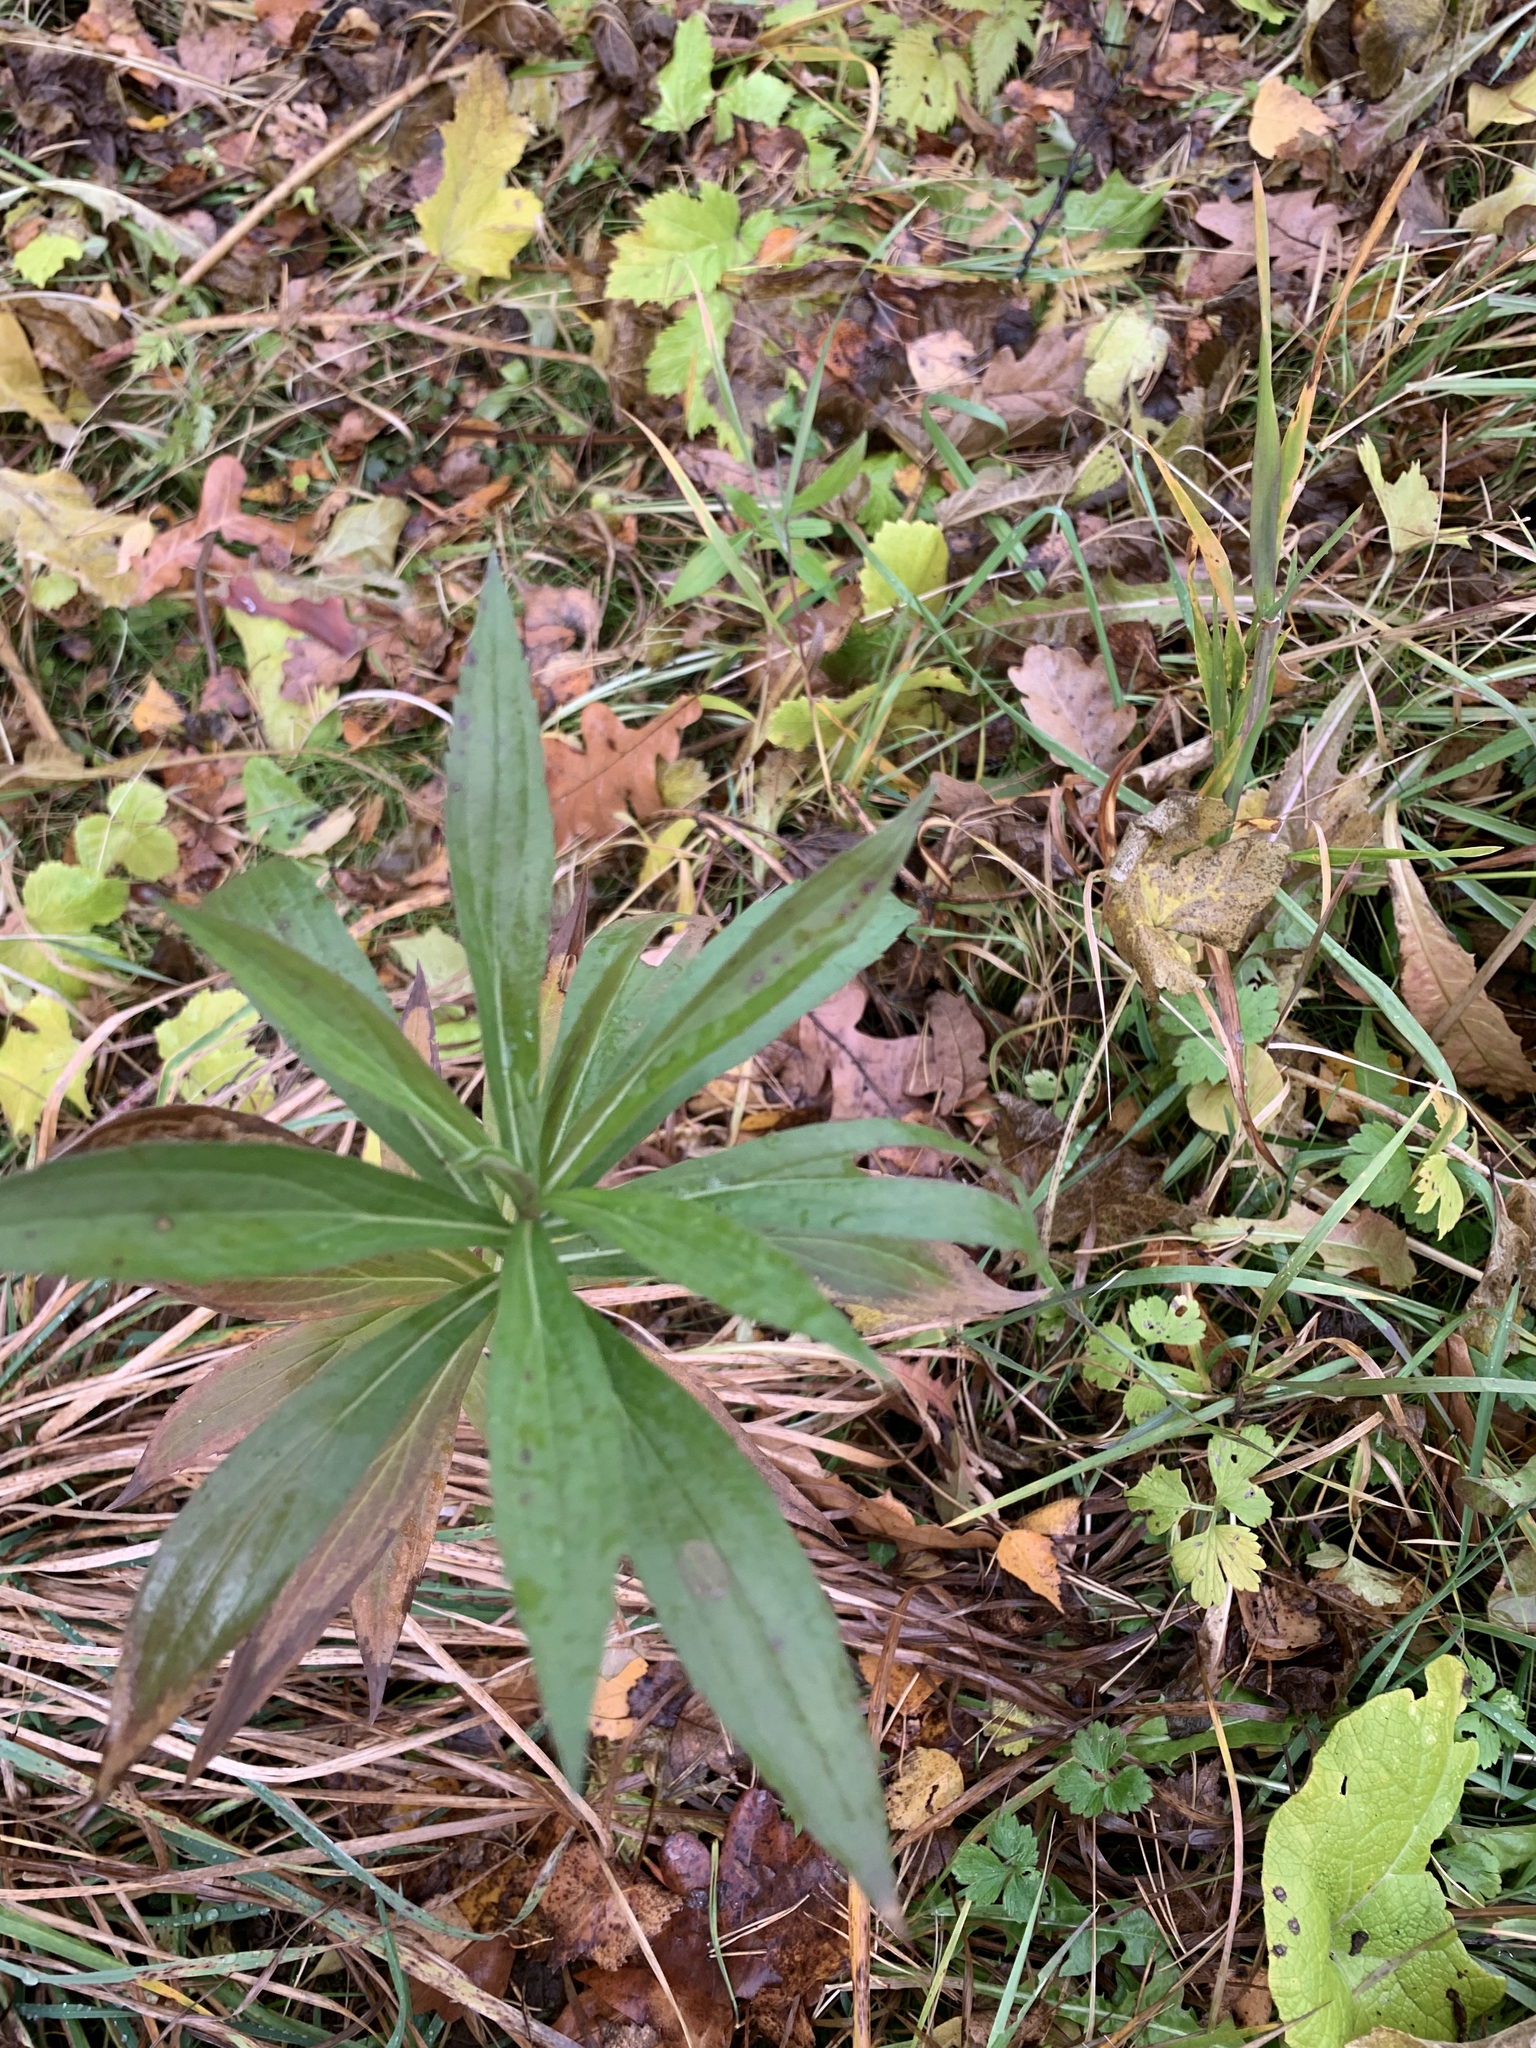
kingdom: Plantae
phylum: Tracheophyta
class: Magnoliopsida
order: Asterales
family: Asteraceae
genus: Solidago
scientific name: Solidago gigantea
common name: Giant goldenrod
